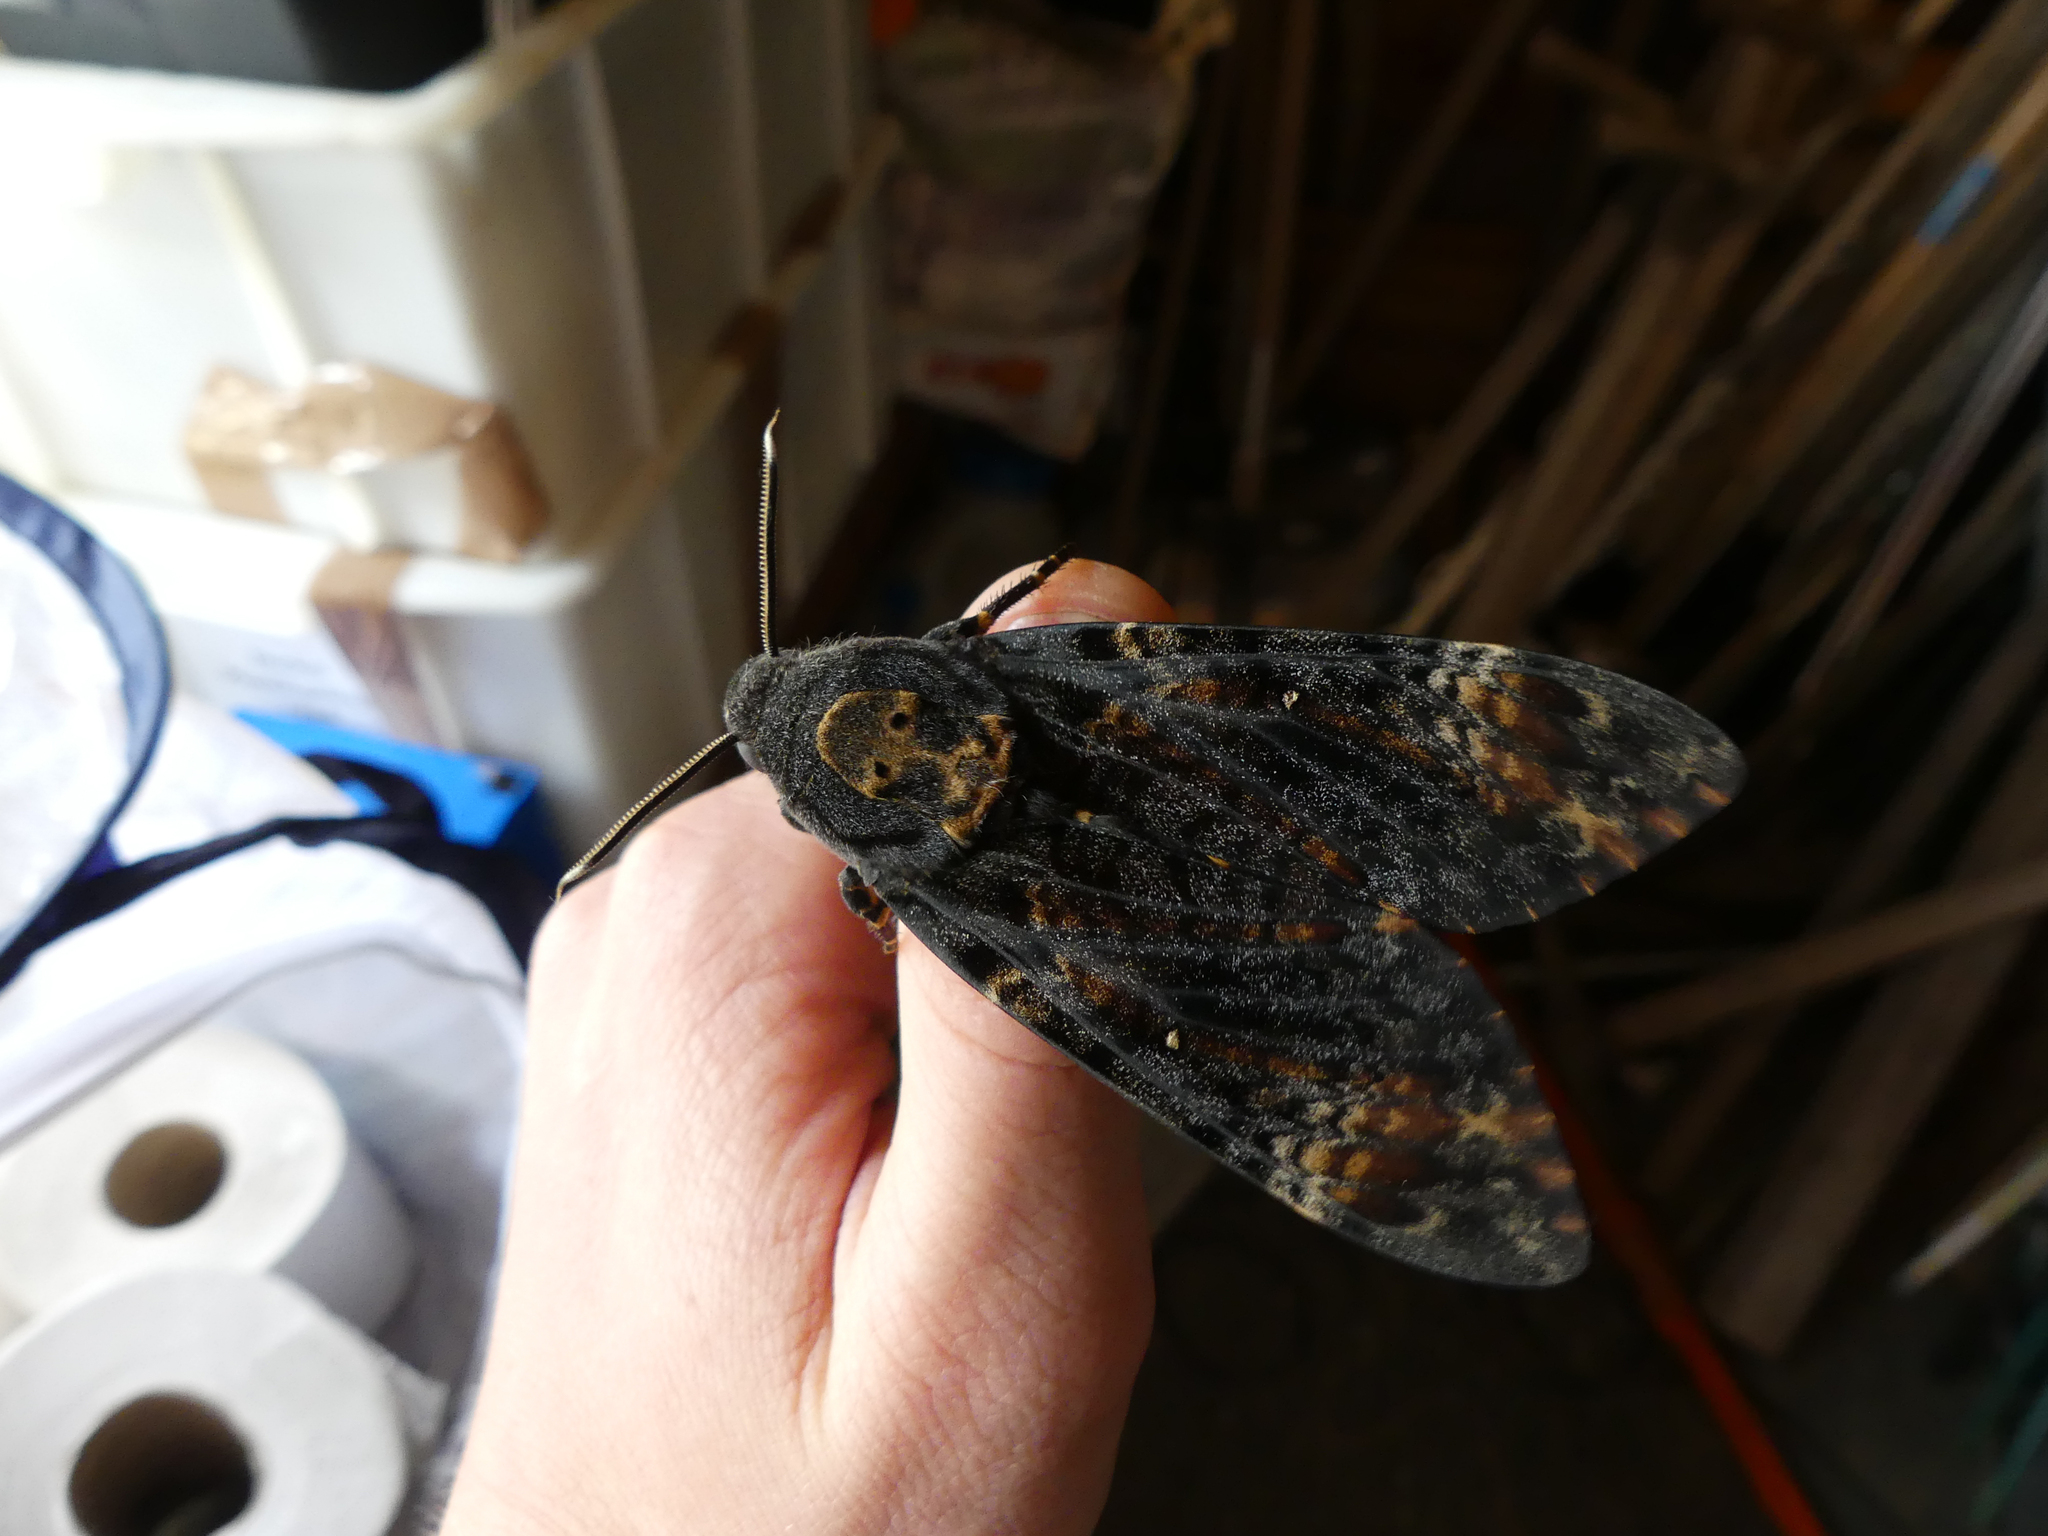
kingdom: Animalia
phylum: Arthropoda
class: Insecta
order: Lepidoptera
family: Sphingidae
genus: Acherontia
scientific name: Acherontia atropos
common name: Death's-head hawk moth
